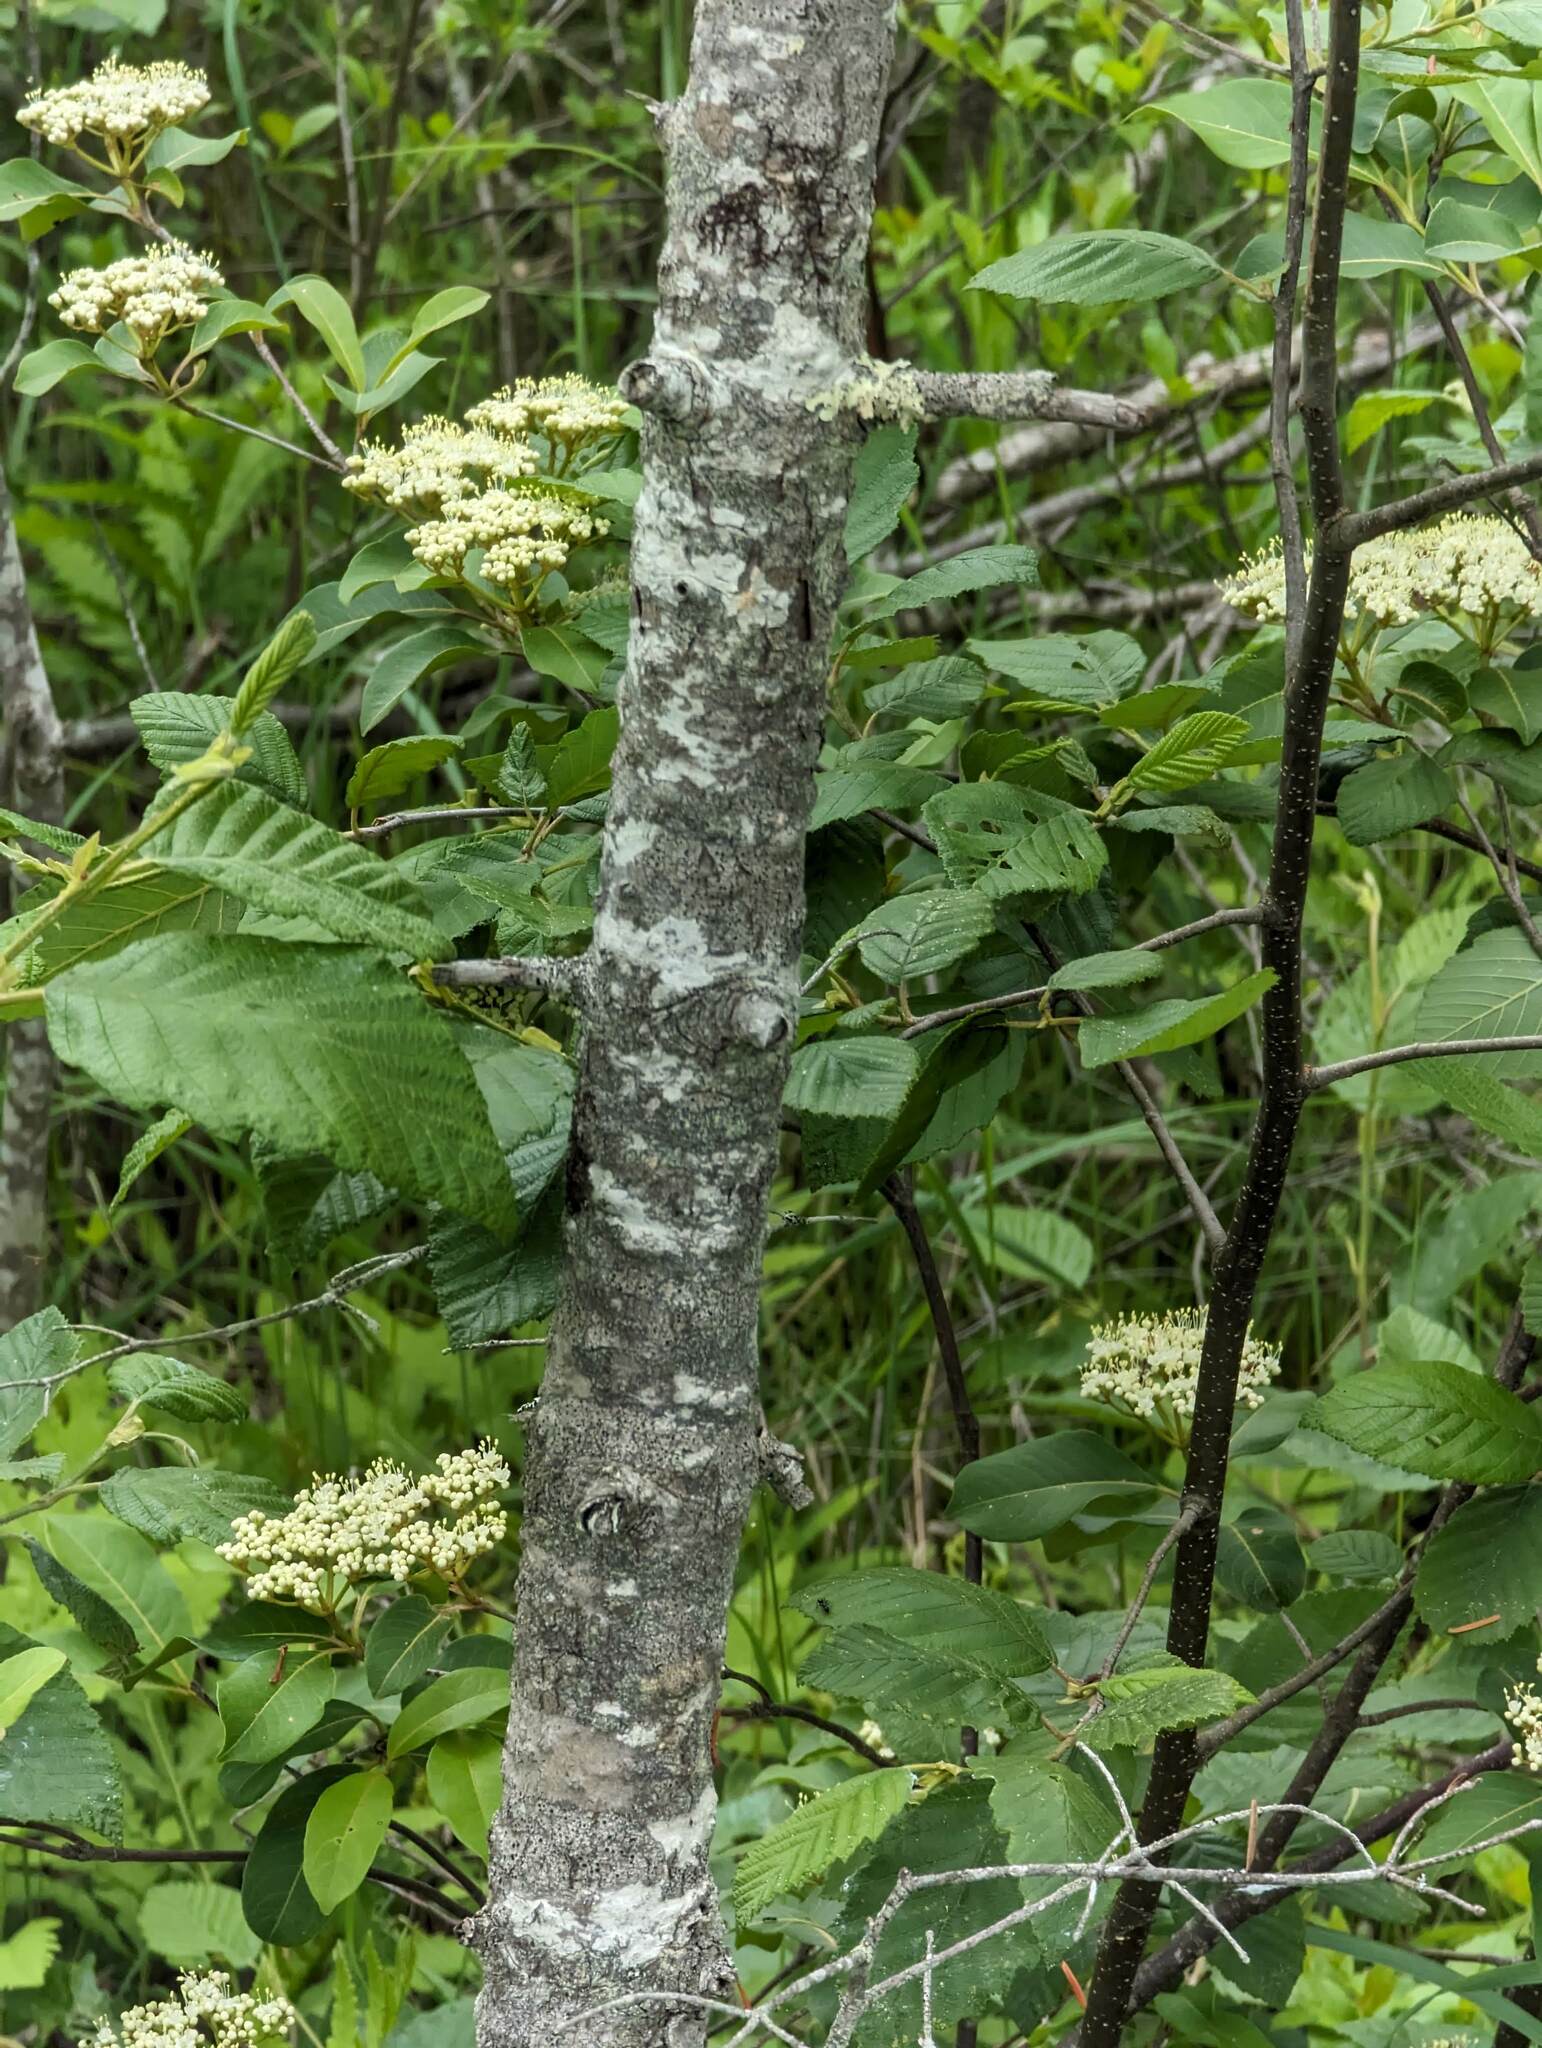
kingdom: Plantae
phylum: Tracheophyta
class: Magnoliopsida
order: Dipsacales
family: Viburnaceae
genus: Viburnum
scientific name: Viburnum cassinoides
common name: Swamp haw
